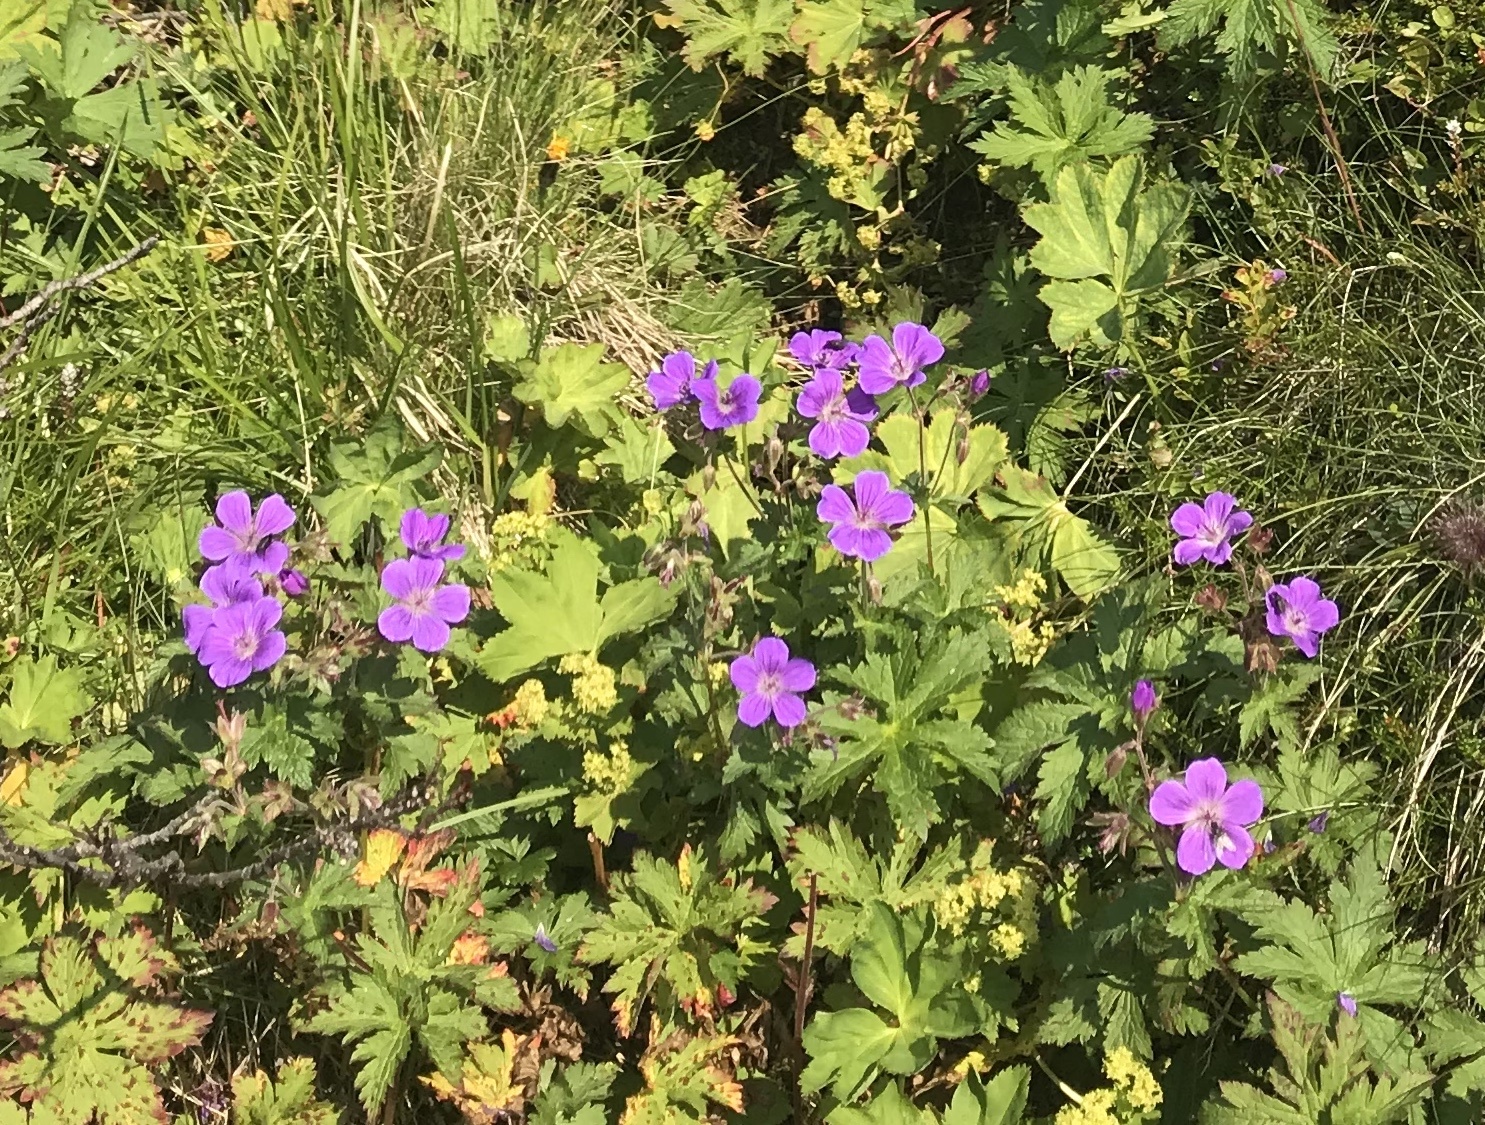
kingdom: Plantae
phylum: Tracheophyta
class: Magnoliopsida
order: Geraniales
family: Geraniaceae
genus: Geranium
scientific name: Geranium sylvaticum
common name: Wood crane's-bill
